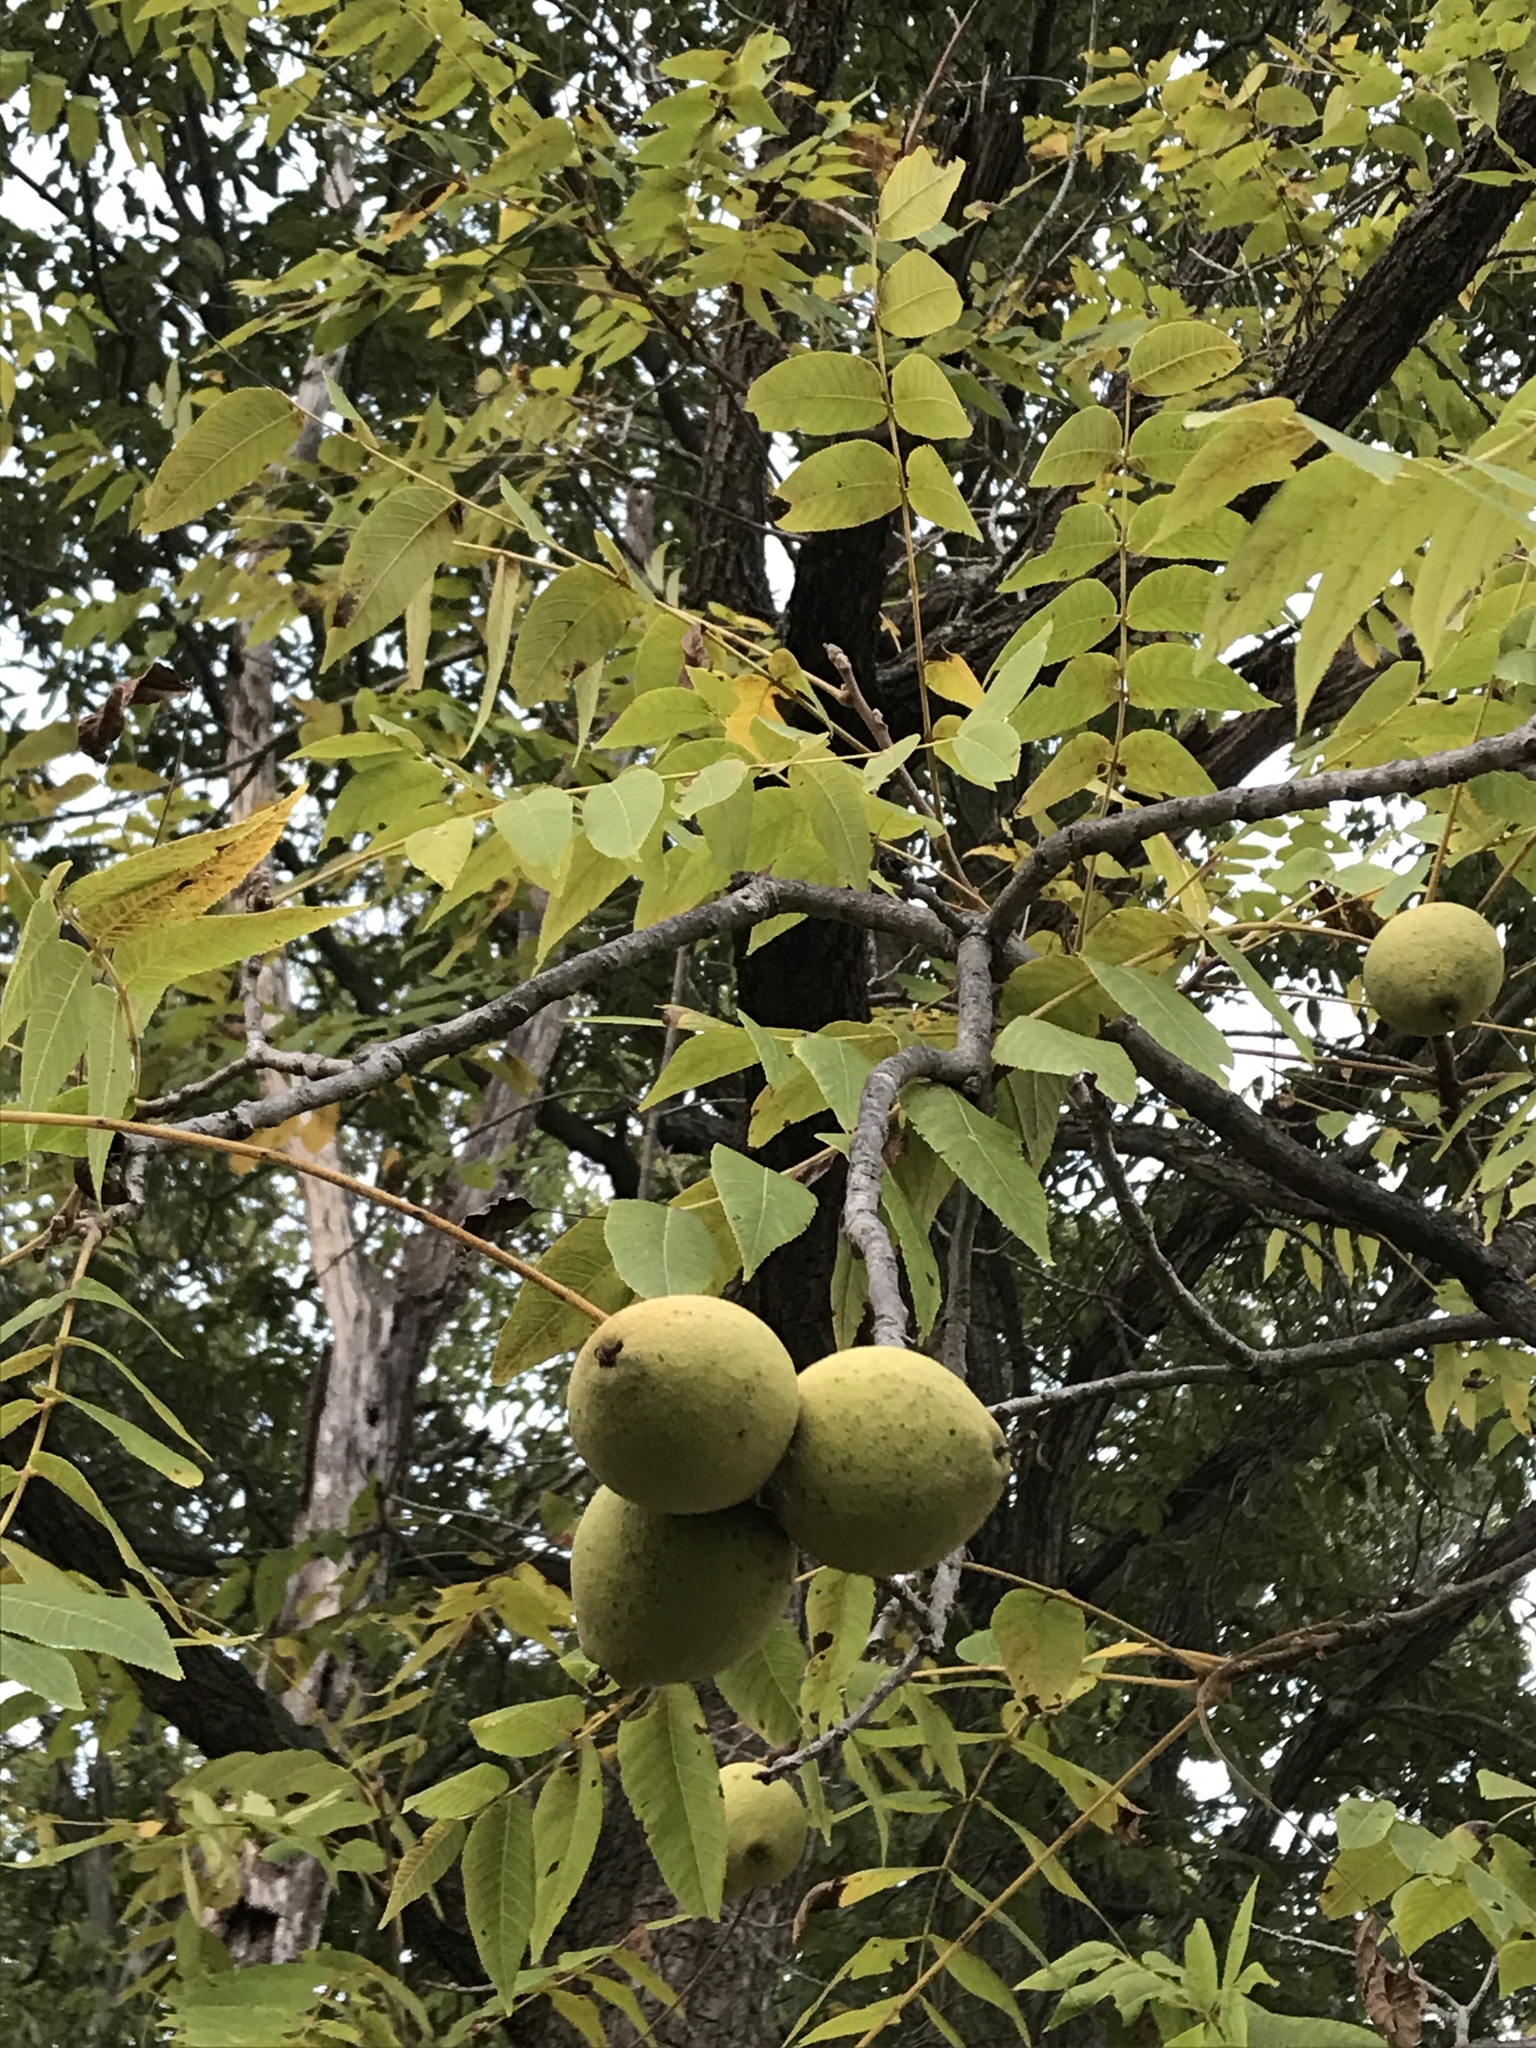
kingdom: Plantae
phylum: Tracheophyta
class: Magnoliopsida
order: Fagales
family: Juglandaceae
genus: Juglans
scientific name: Juglans nigra
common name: Black walnut
